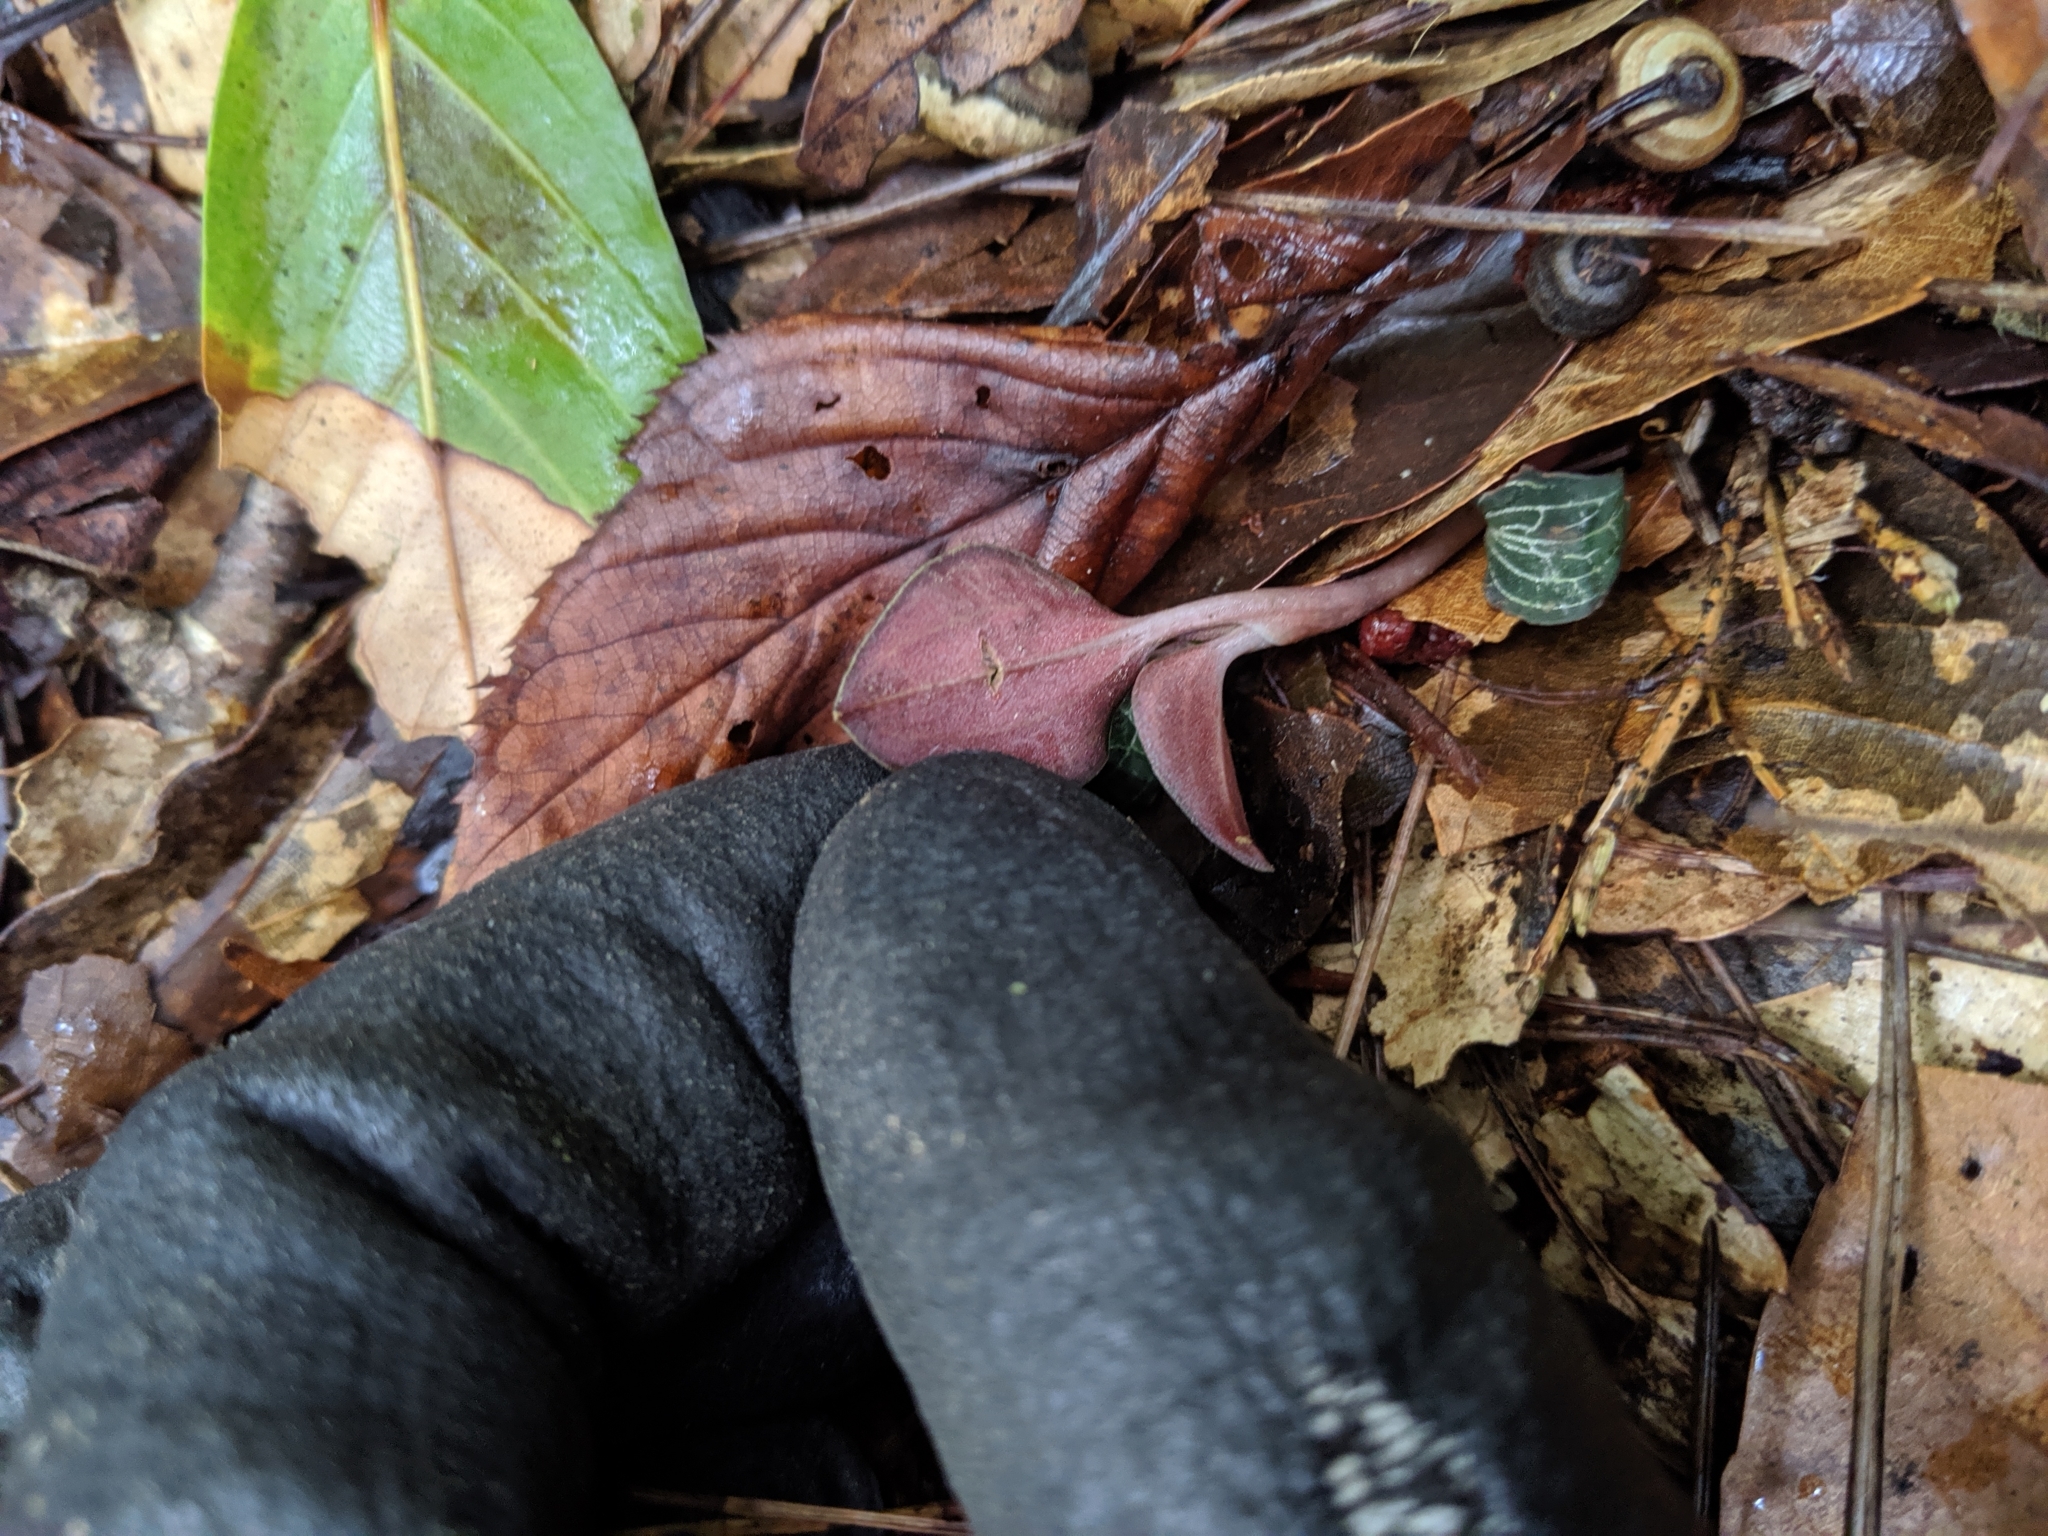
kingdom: Plantae
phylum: Tracheophyta
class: Liliopsida
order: Asparagales
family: Orchidaceae
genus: Anoectochilus
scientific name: Anoectochilus formosanus
